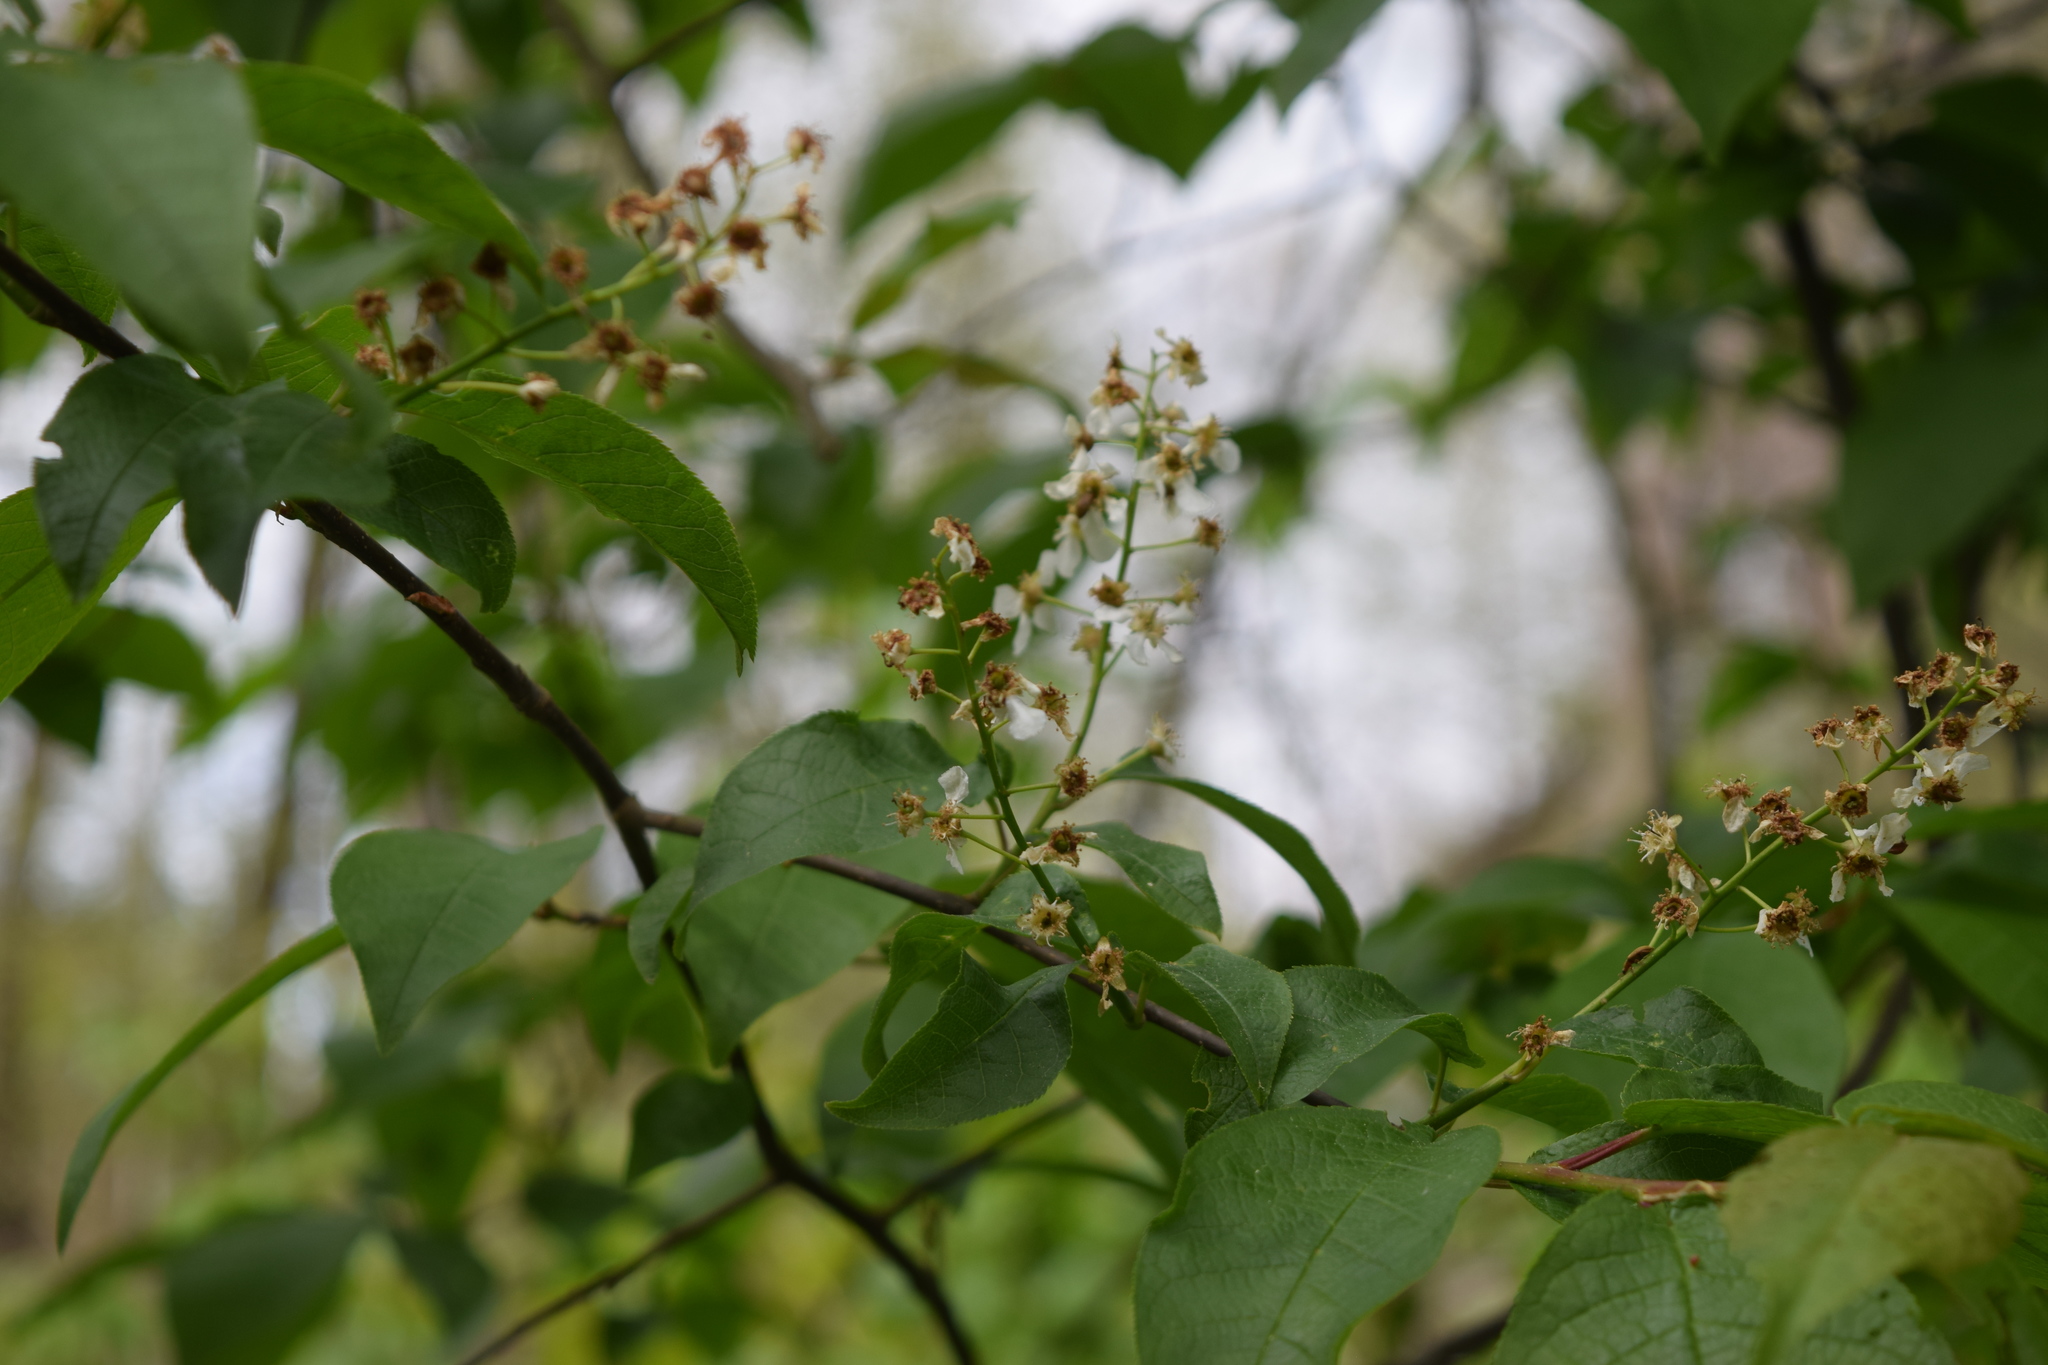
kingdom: Plantae
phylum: Tracheophyta
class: Magnoliopsida
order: Rosales
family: Rosaceae
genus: Prunus
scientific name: Prunus padus
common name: Bird cherry
